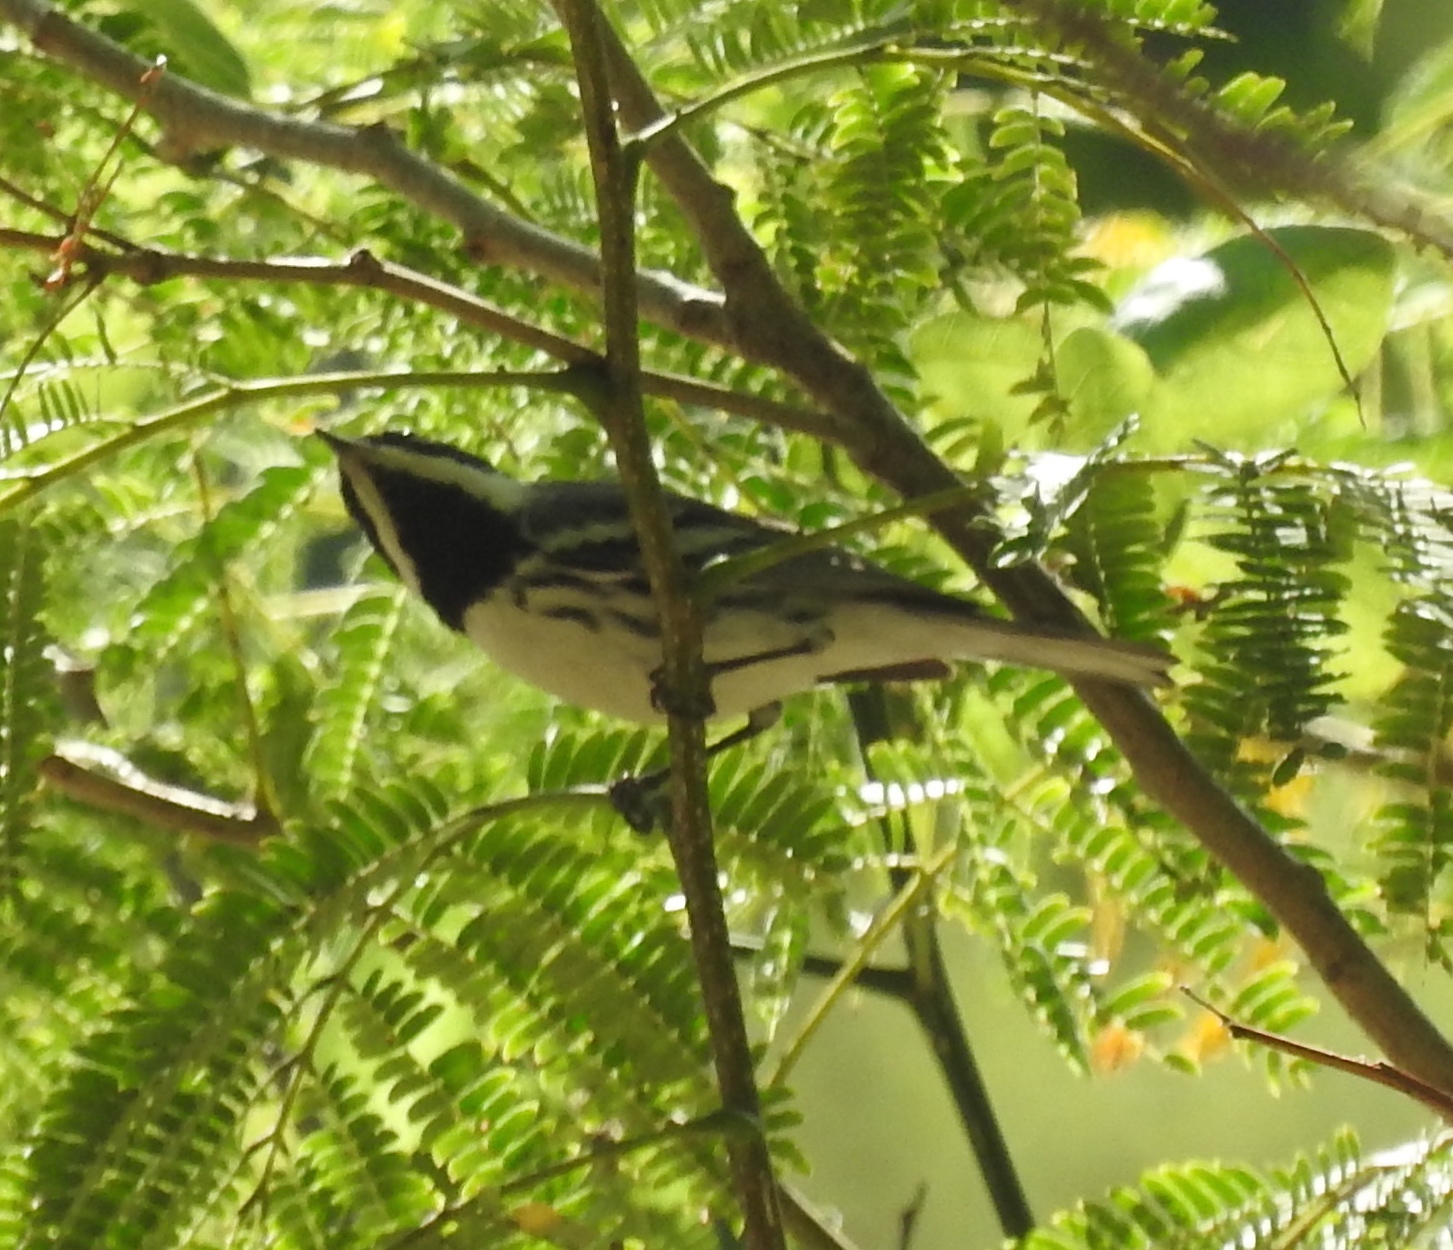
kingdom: Animalia
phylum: Chordata
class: Aves
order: Passeriformes
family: Parulidae
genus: Setophaga
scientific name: Setophaga nigrescens
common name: Black-throated gray warbler
